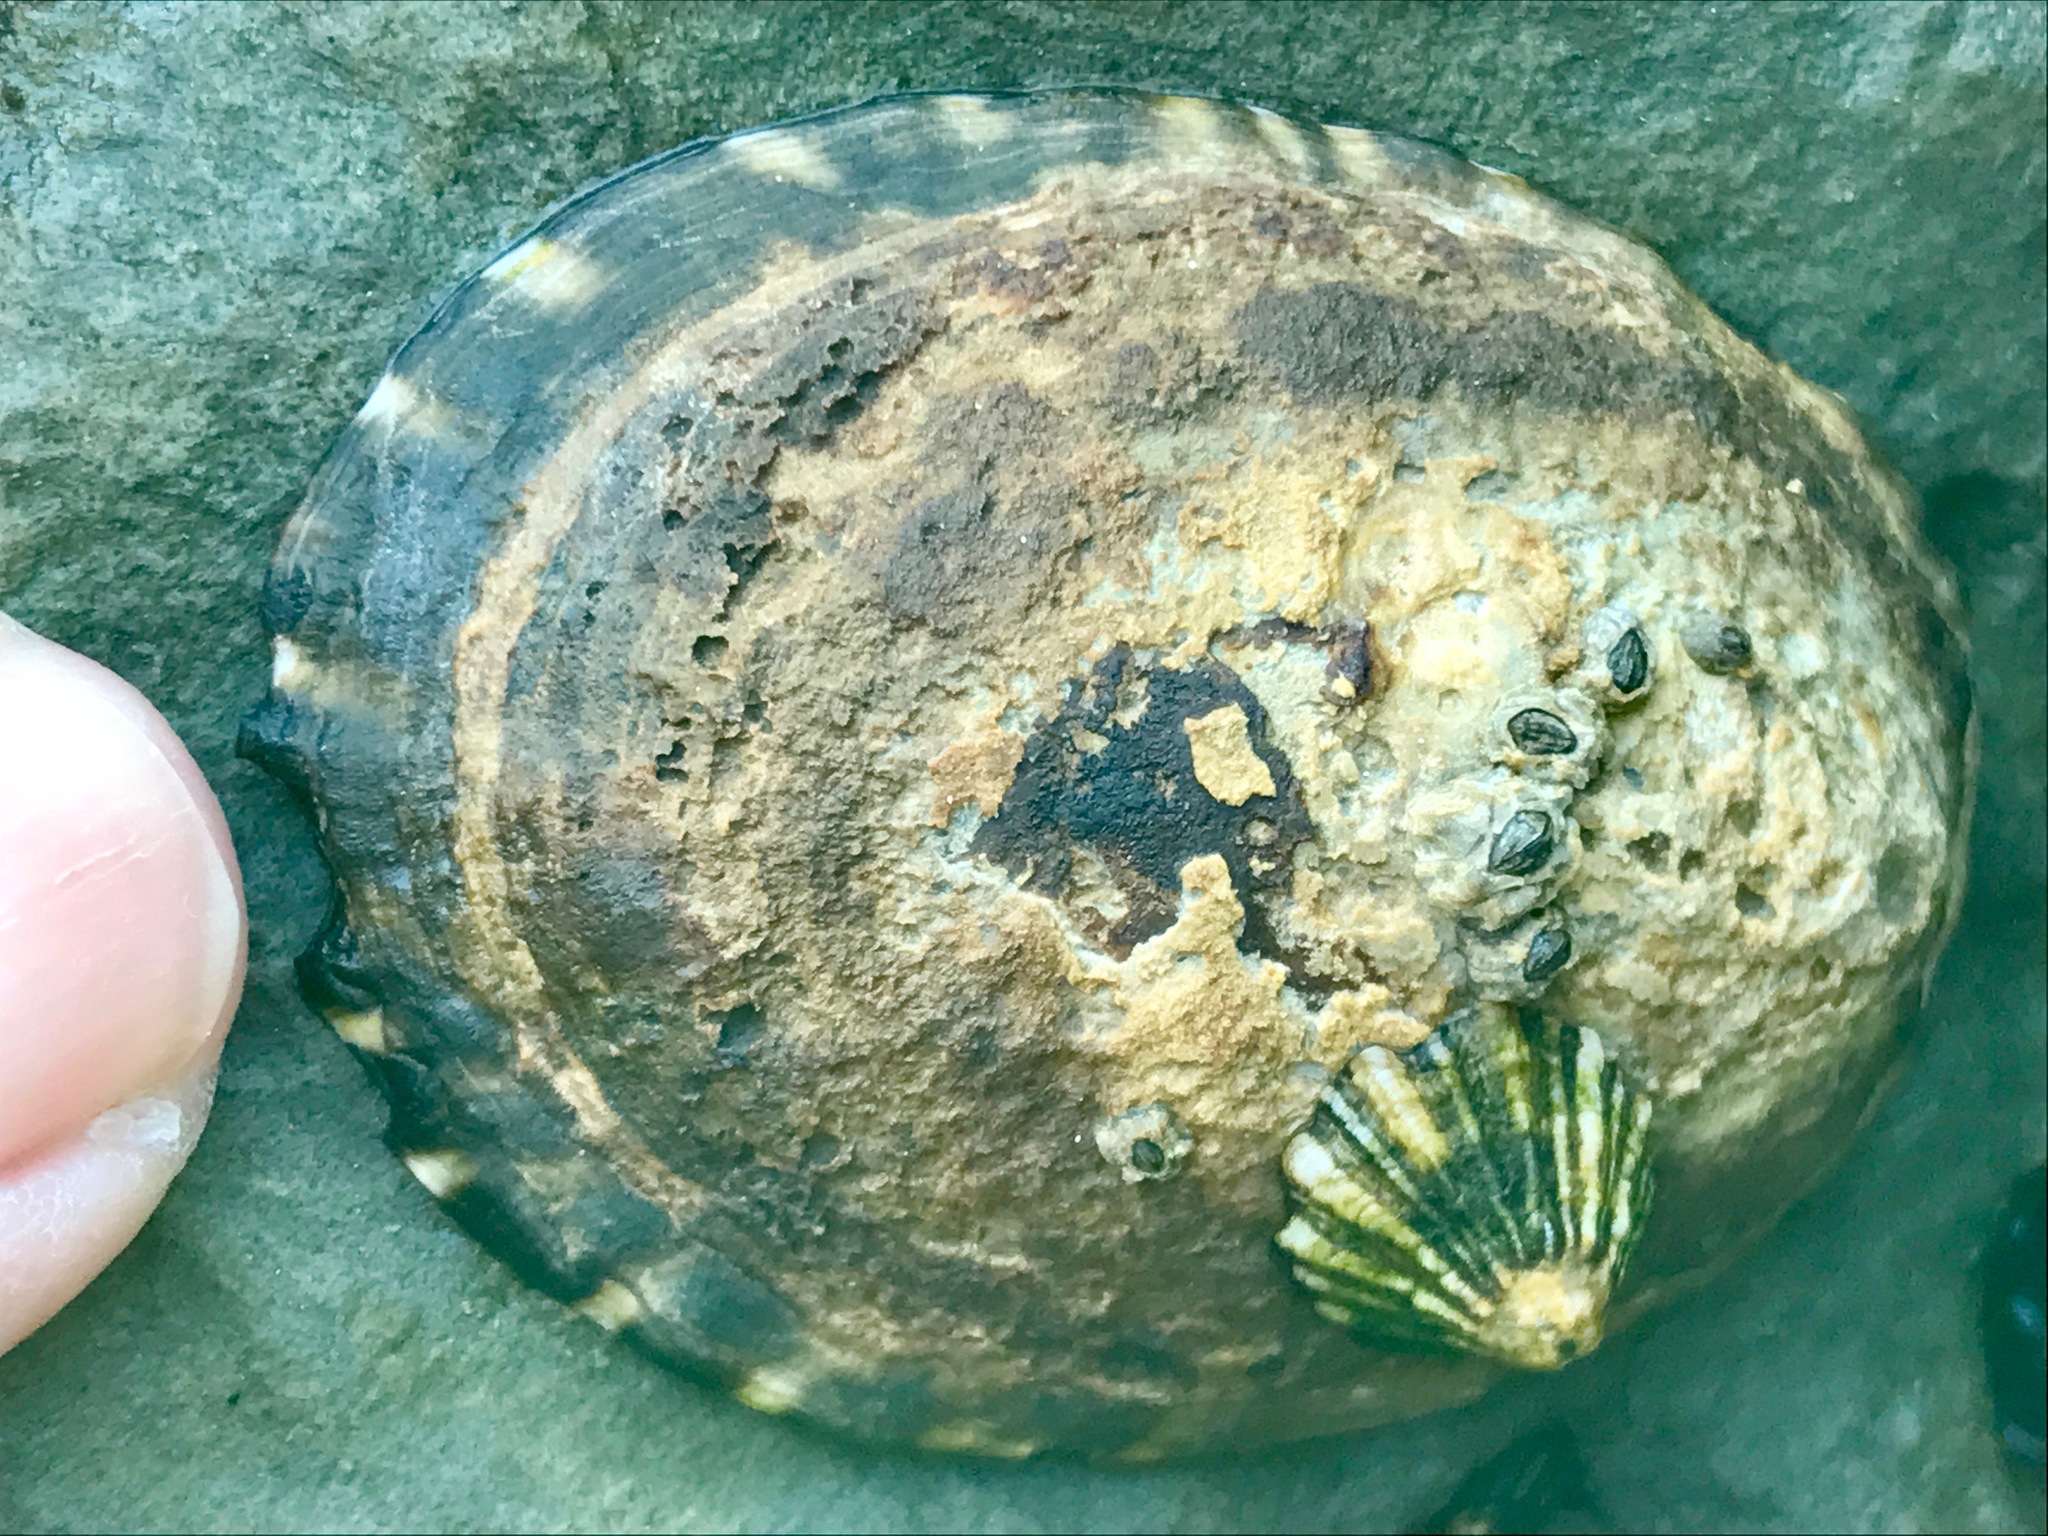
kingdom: Animalia
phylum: Mollusca
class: Gastropoda
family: Lottiidae
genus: Lottia
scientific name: Lottia gigantea
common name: Owl limpet
